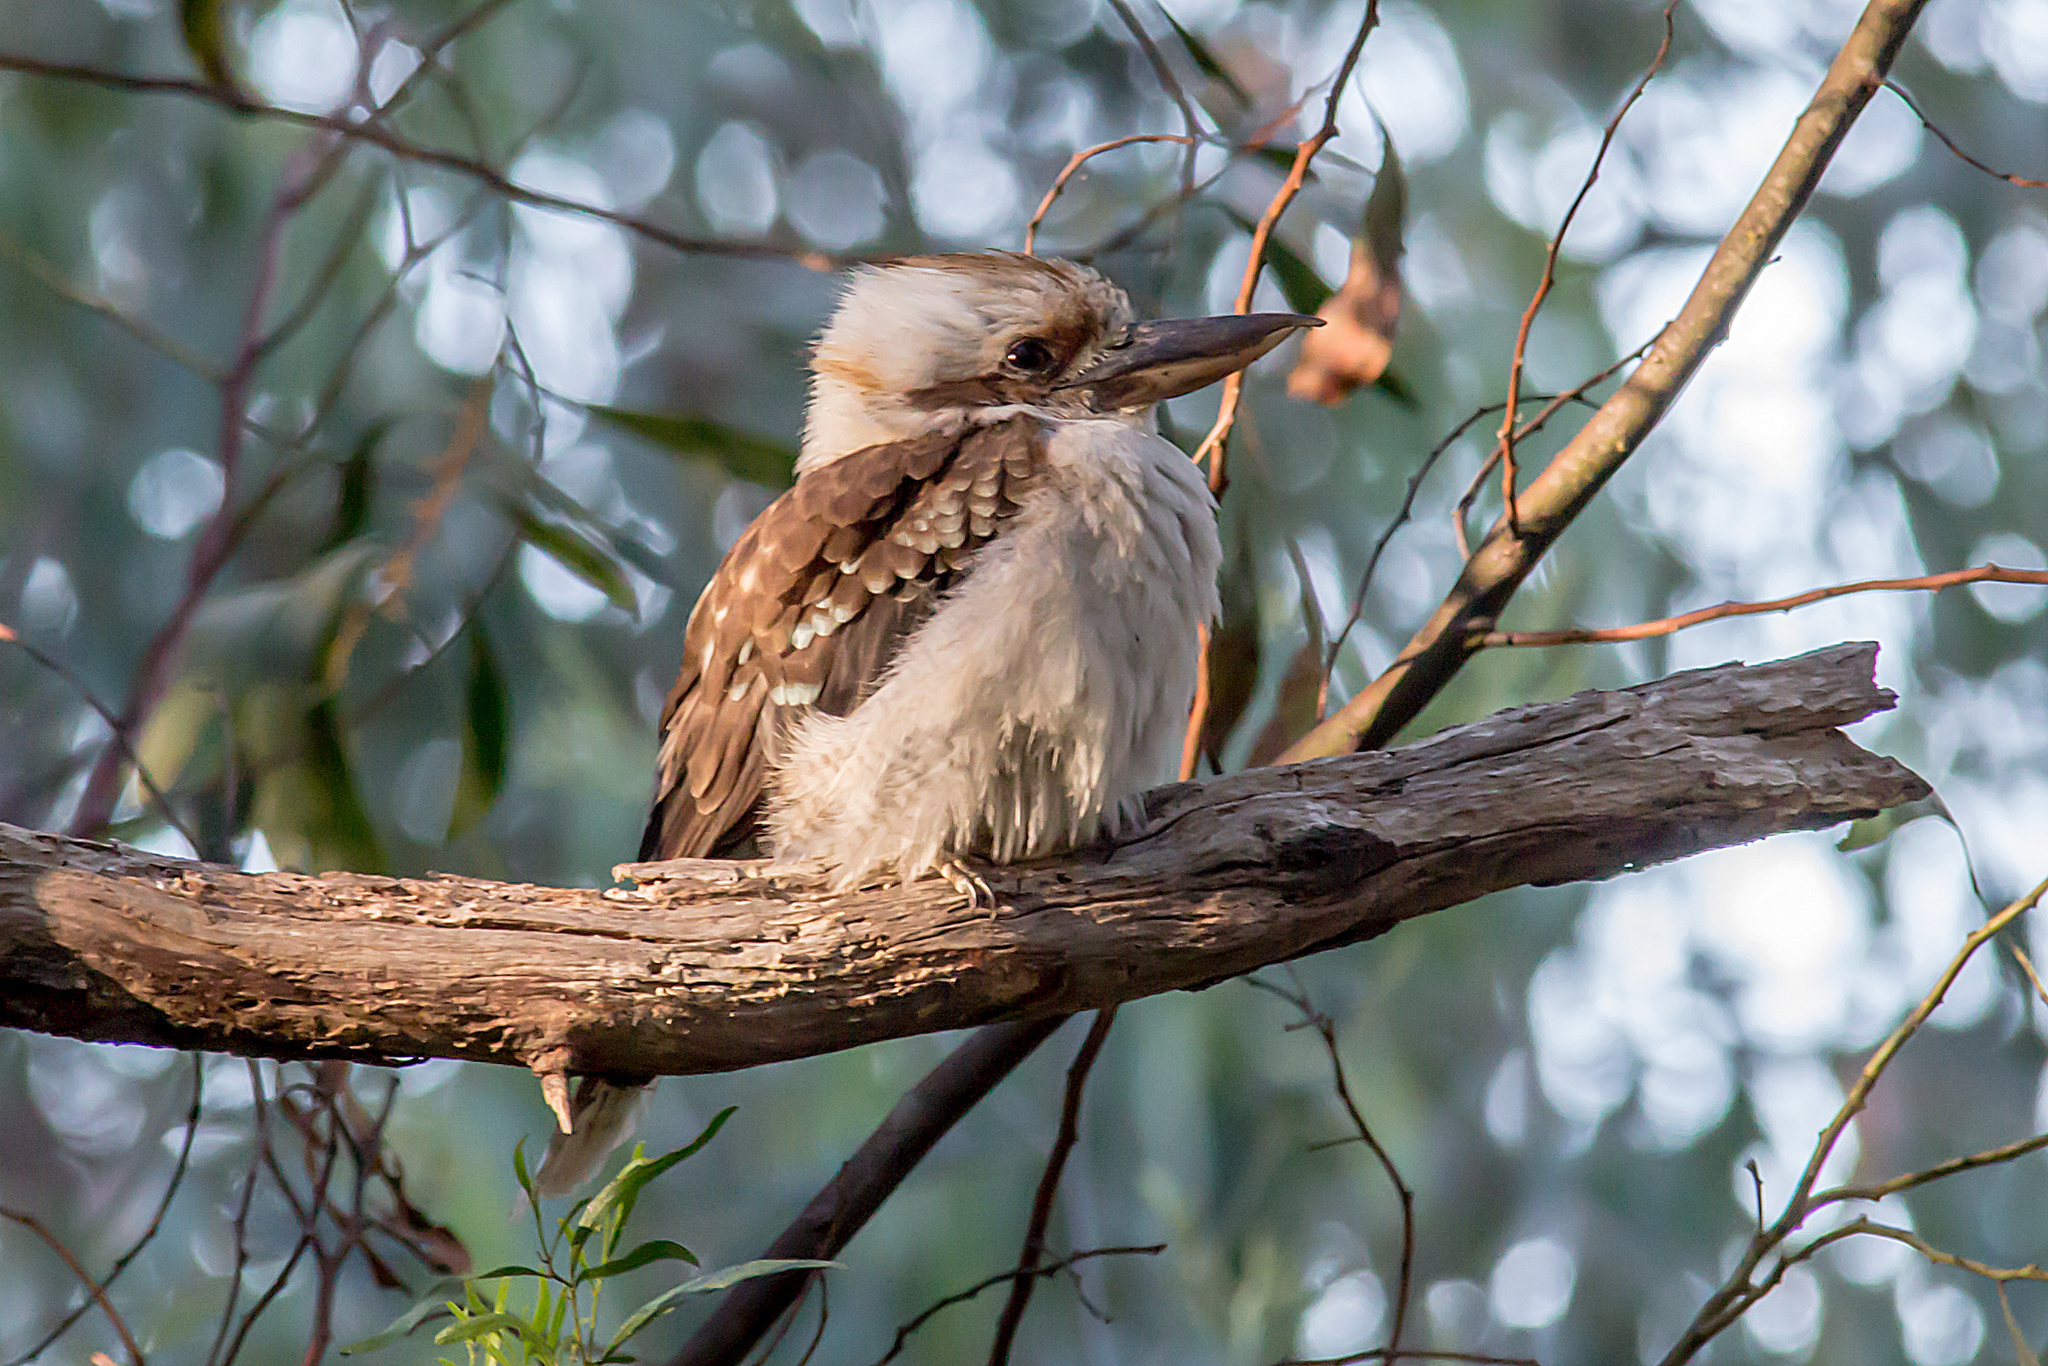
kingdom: Animalia
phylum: Chordata
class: Aves
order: Coraciiformes
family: Alcedinidae
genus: Dacelo
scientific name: Dacelo novaeguineae
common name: Laughing kookaburra
